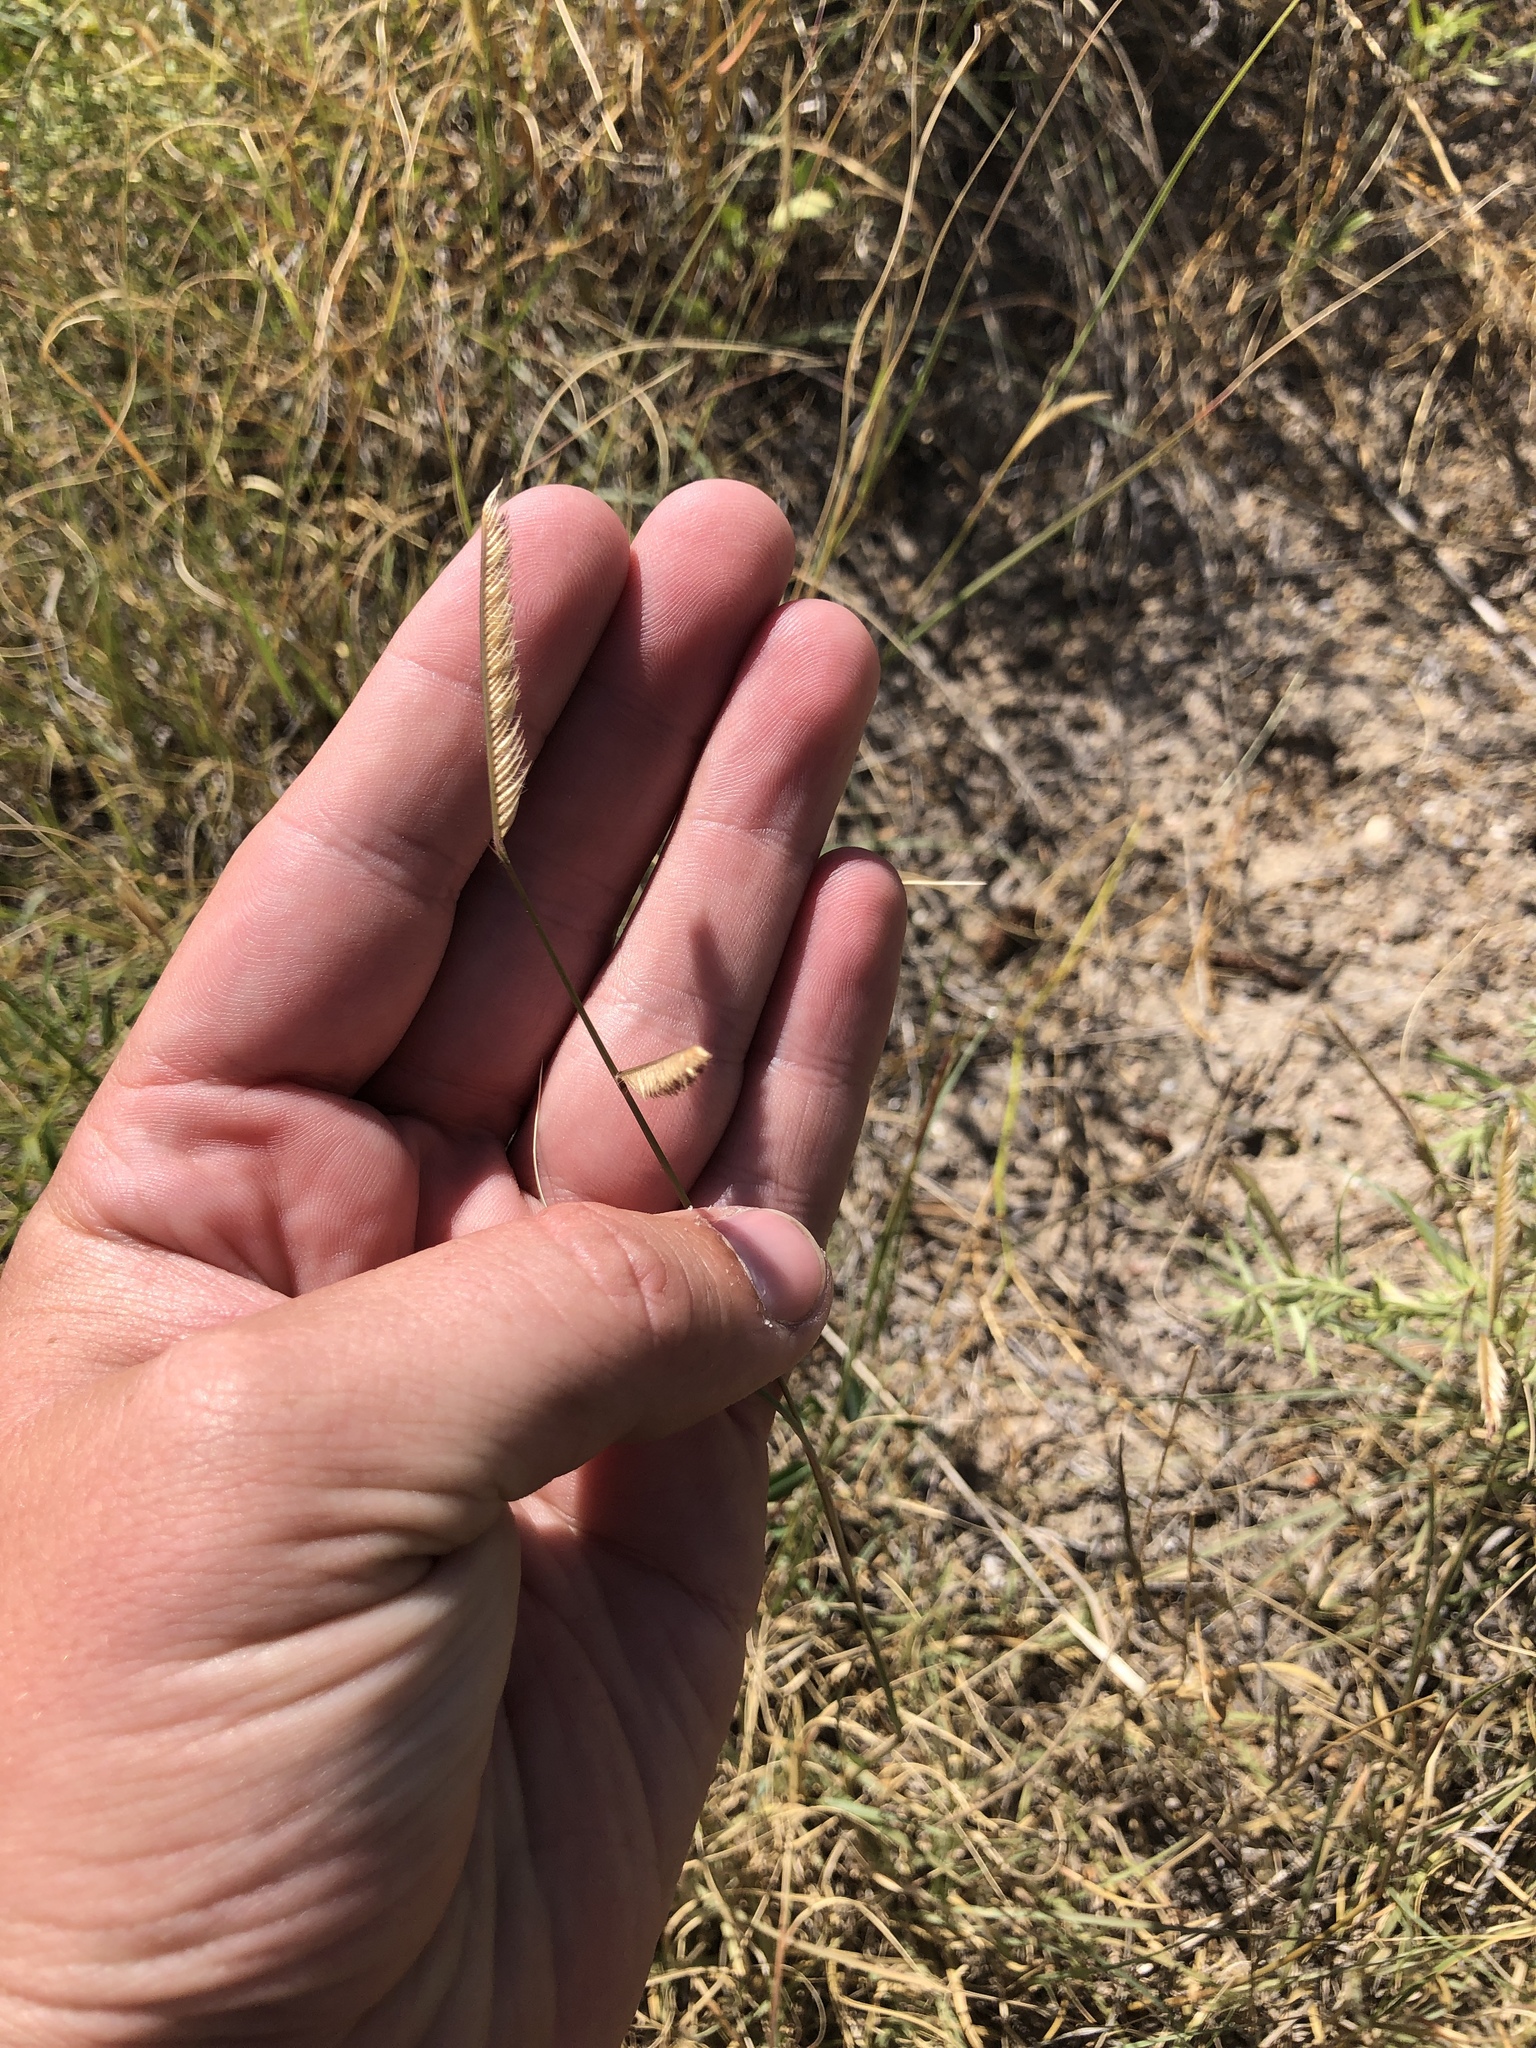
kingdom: Plantae
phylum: Tracheophyta
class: Liliopsida
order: Poales
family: Poaceae
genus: Bouteloua
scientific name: Bouteloua gracilis
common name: Blue grama
